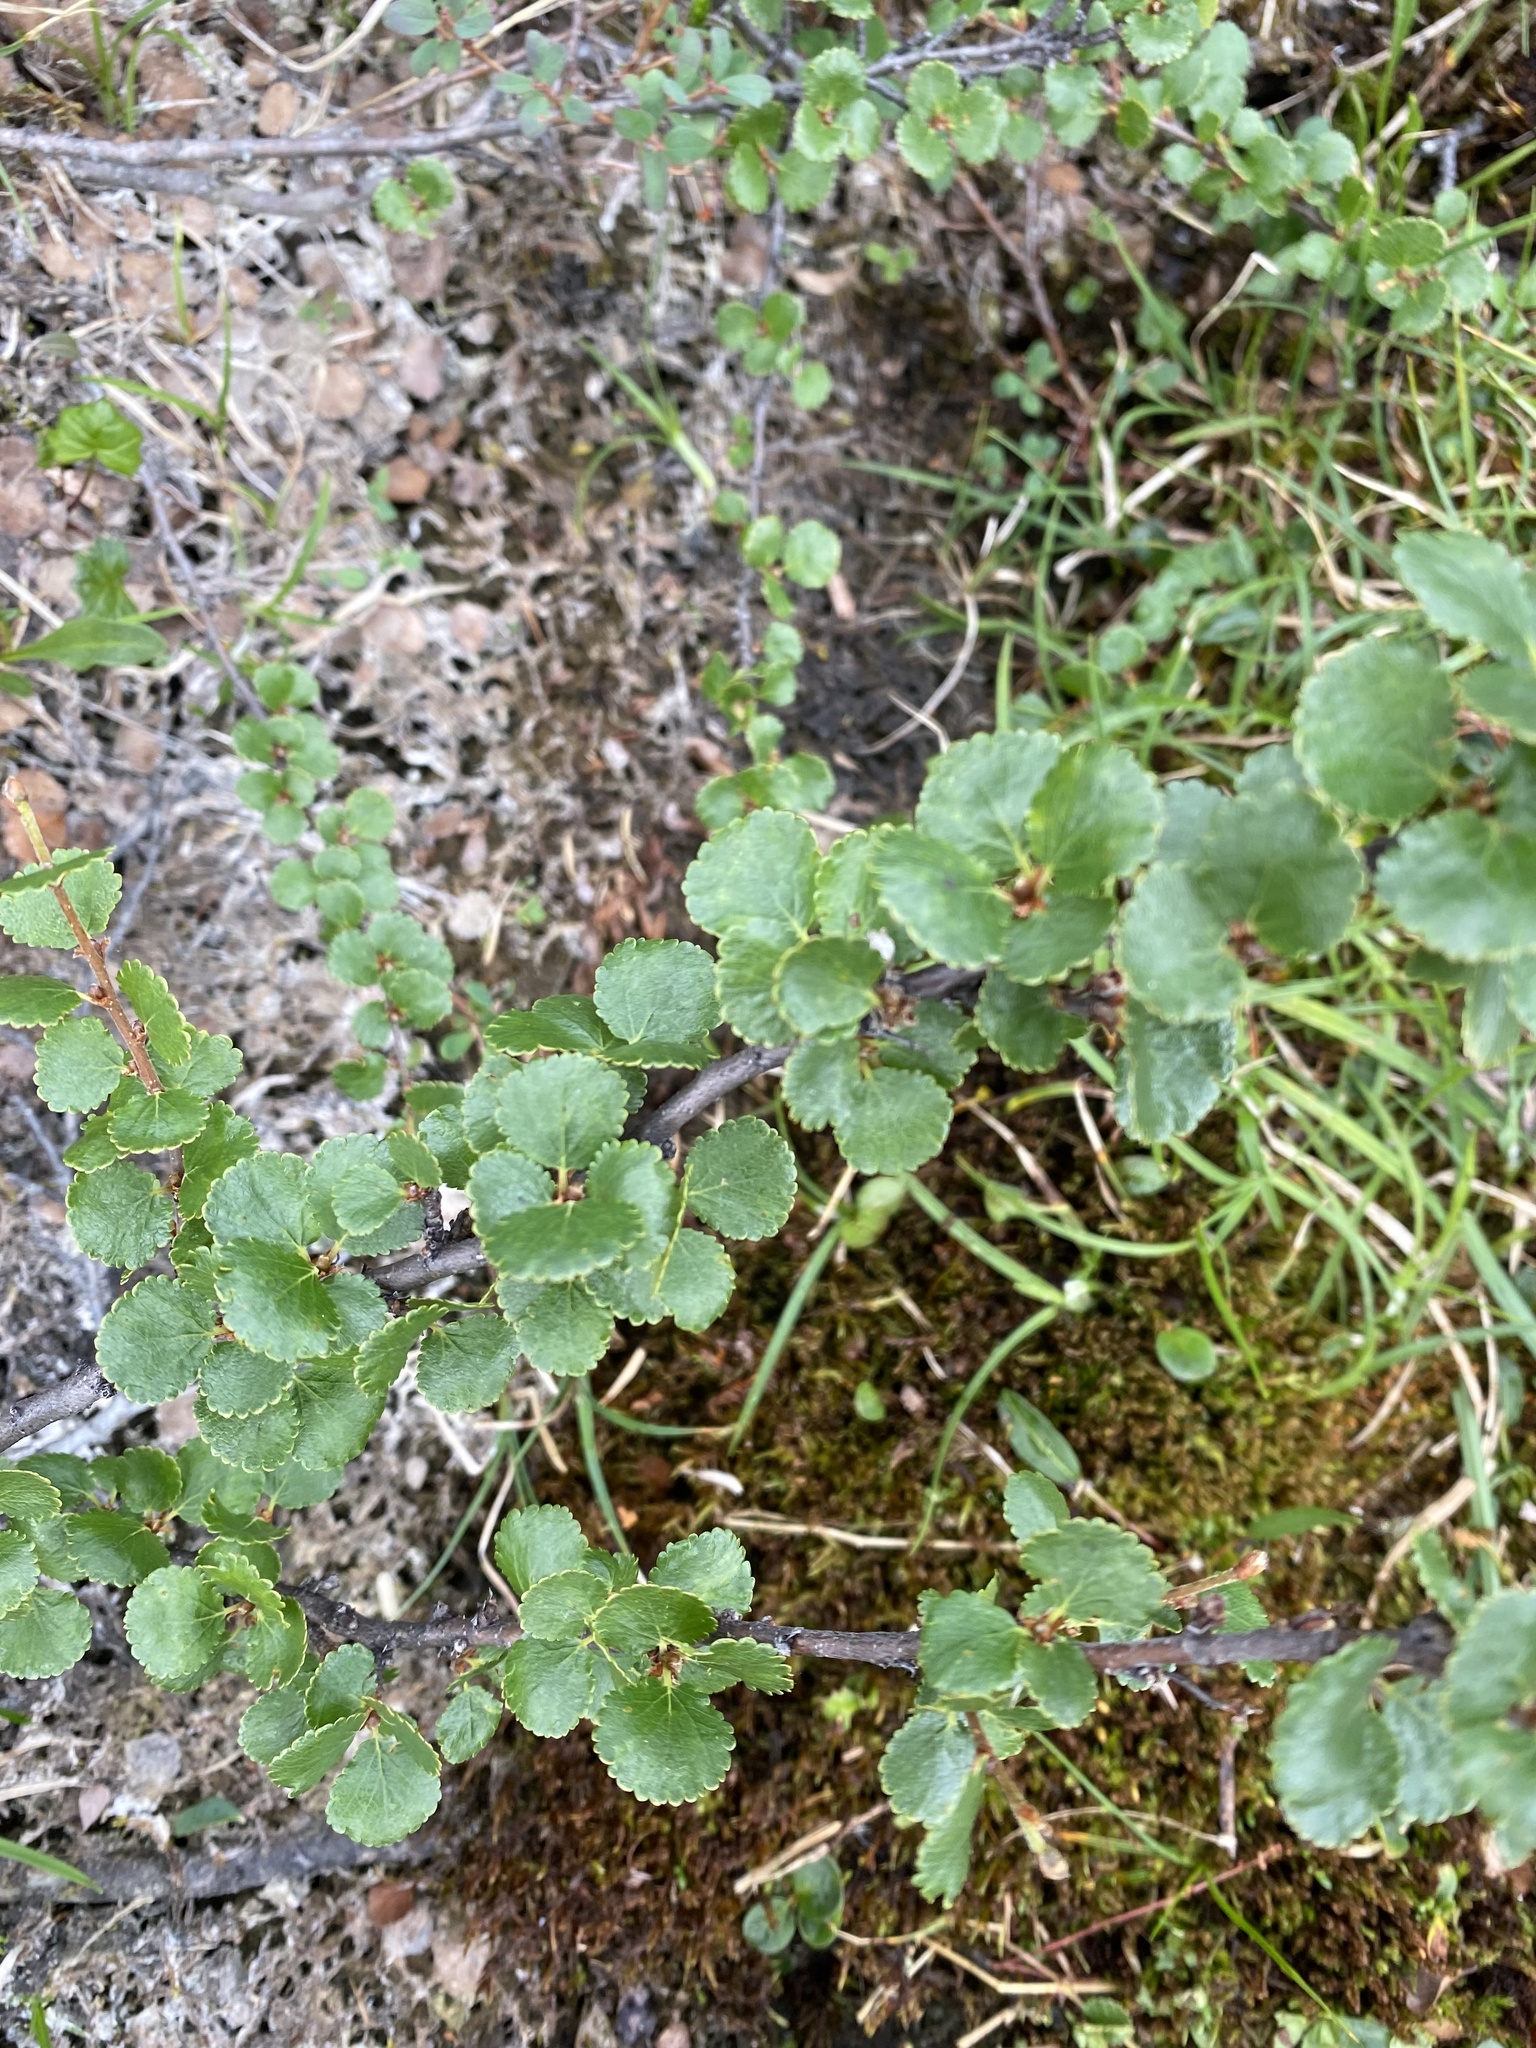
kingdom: Plantae
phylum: Tracheophyta
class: Magnoliopsida
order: Fagales
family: Betulaceae
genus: Betula
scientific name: Betula nana
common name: Arctic dwarf birch
